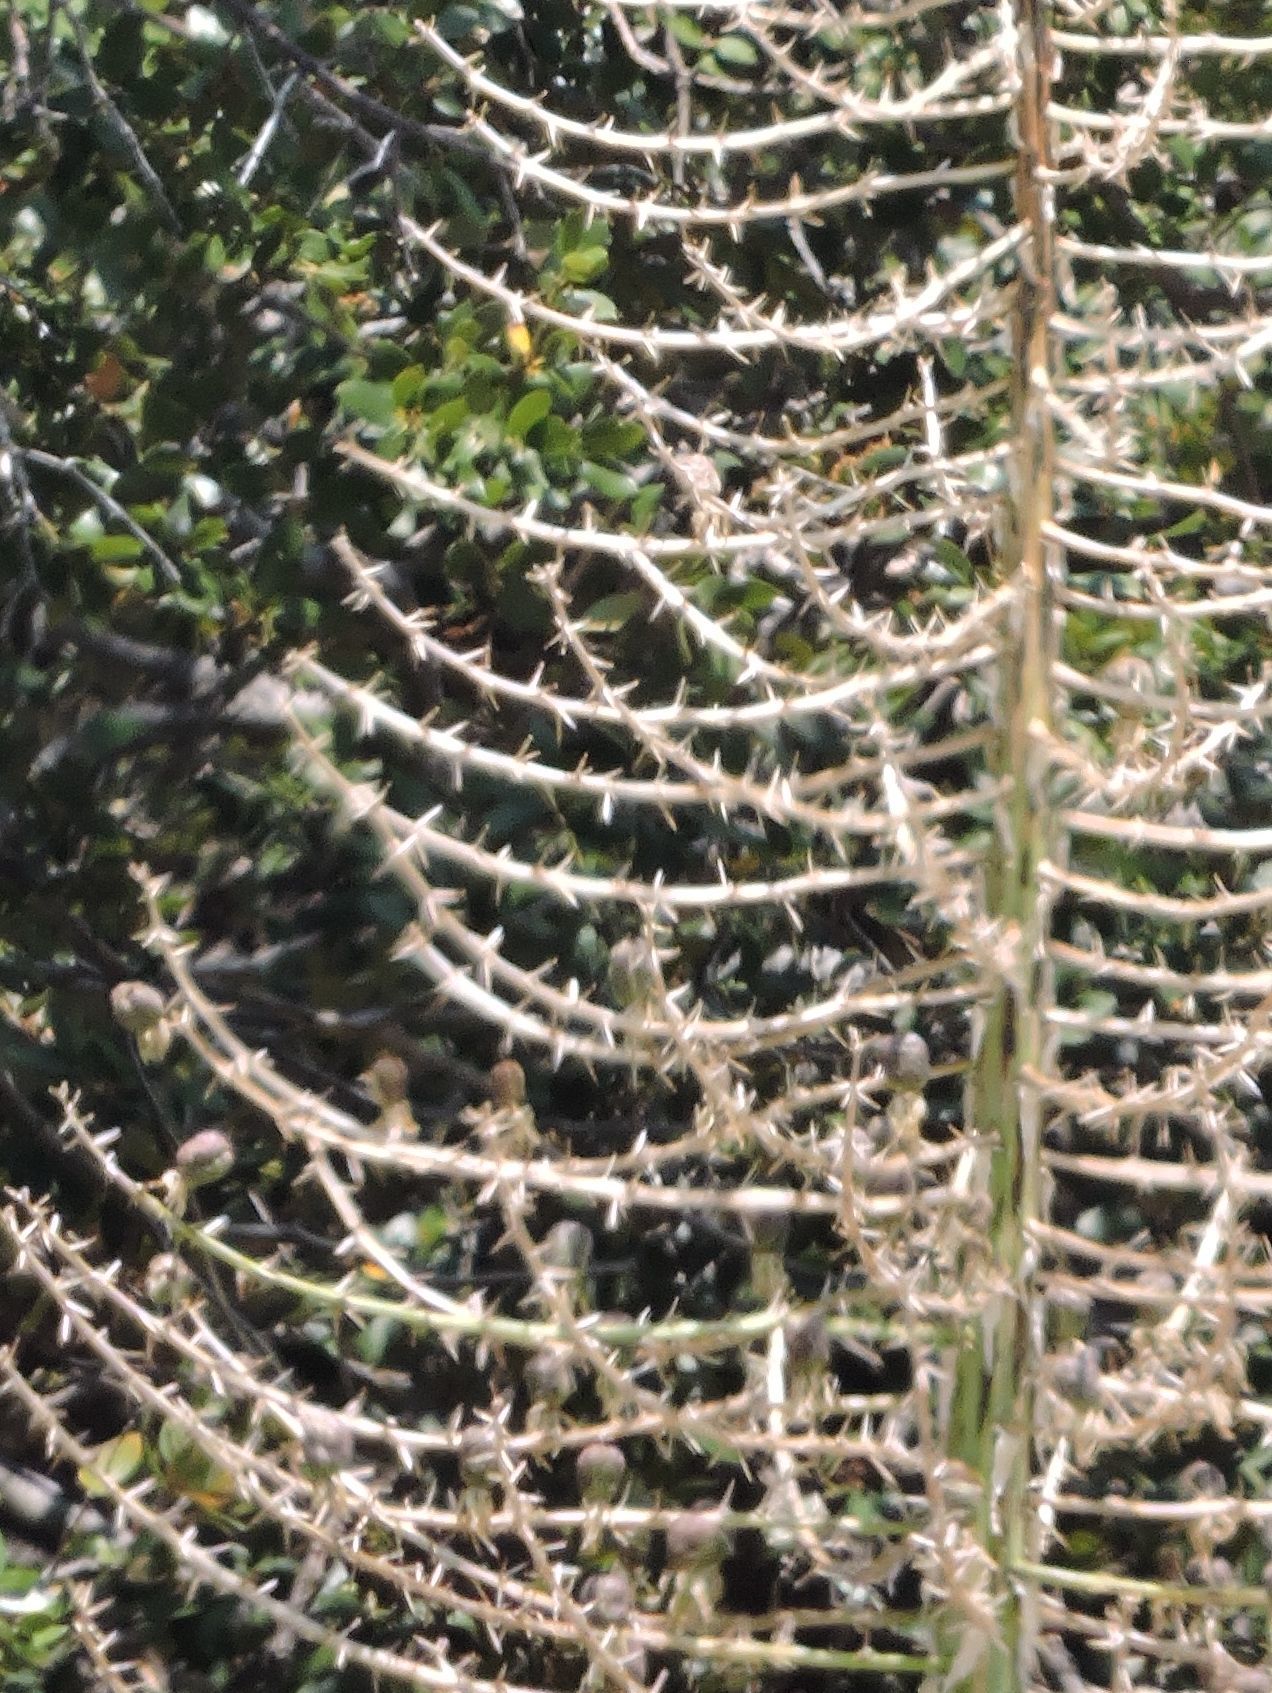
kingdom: Plantae
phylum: Tracheophyta
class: Liliopsida
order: Asparagales
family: Asparagaceae
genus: Hesperoyucca
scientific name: Hesperoyucca whipplei
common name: Our lord's-candle
